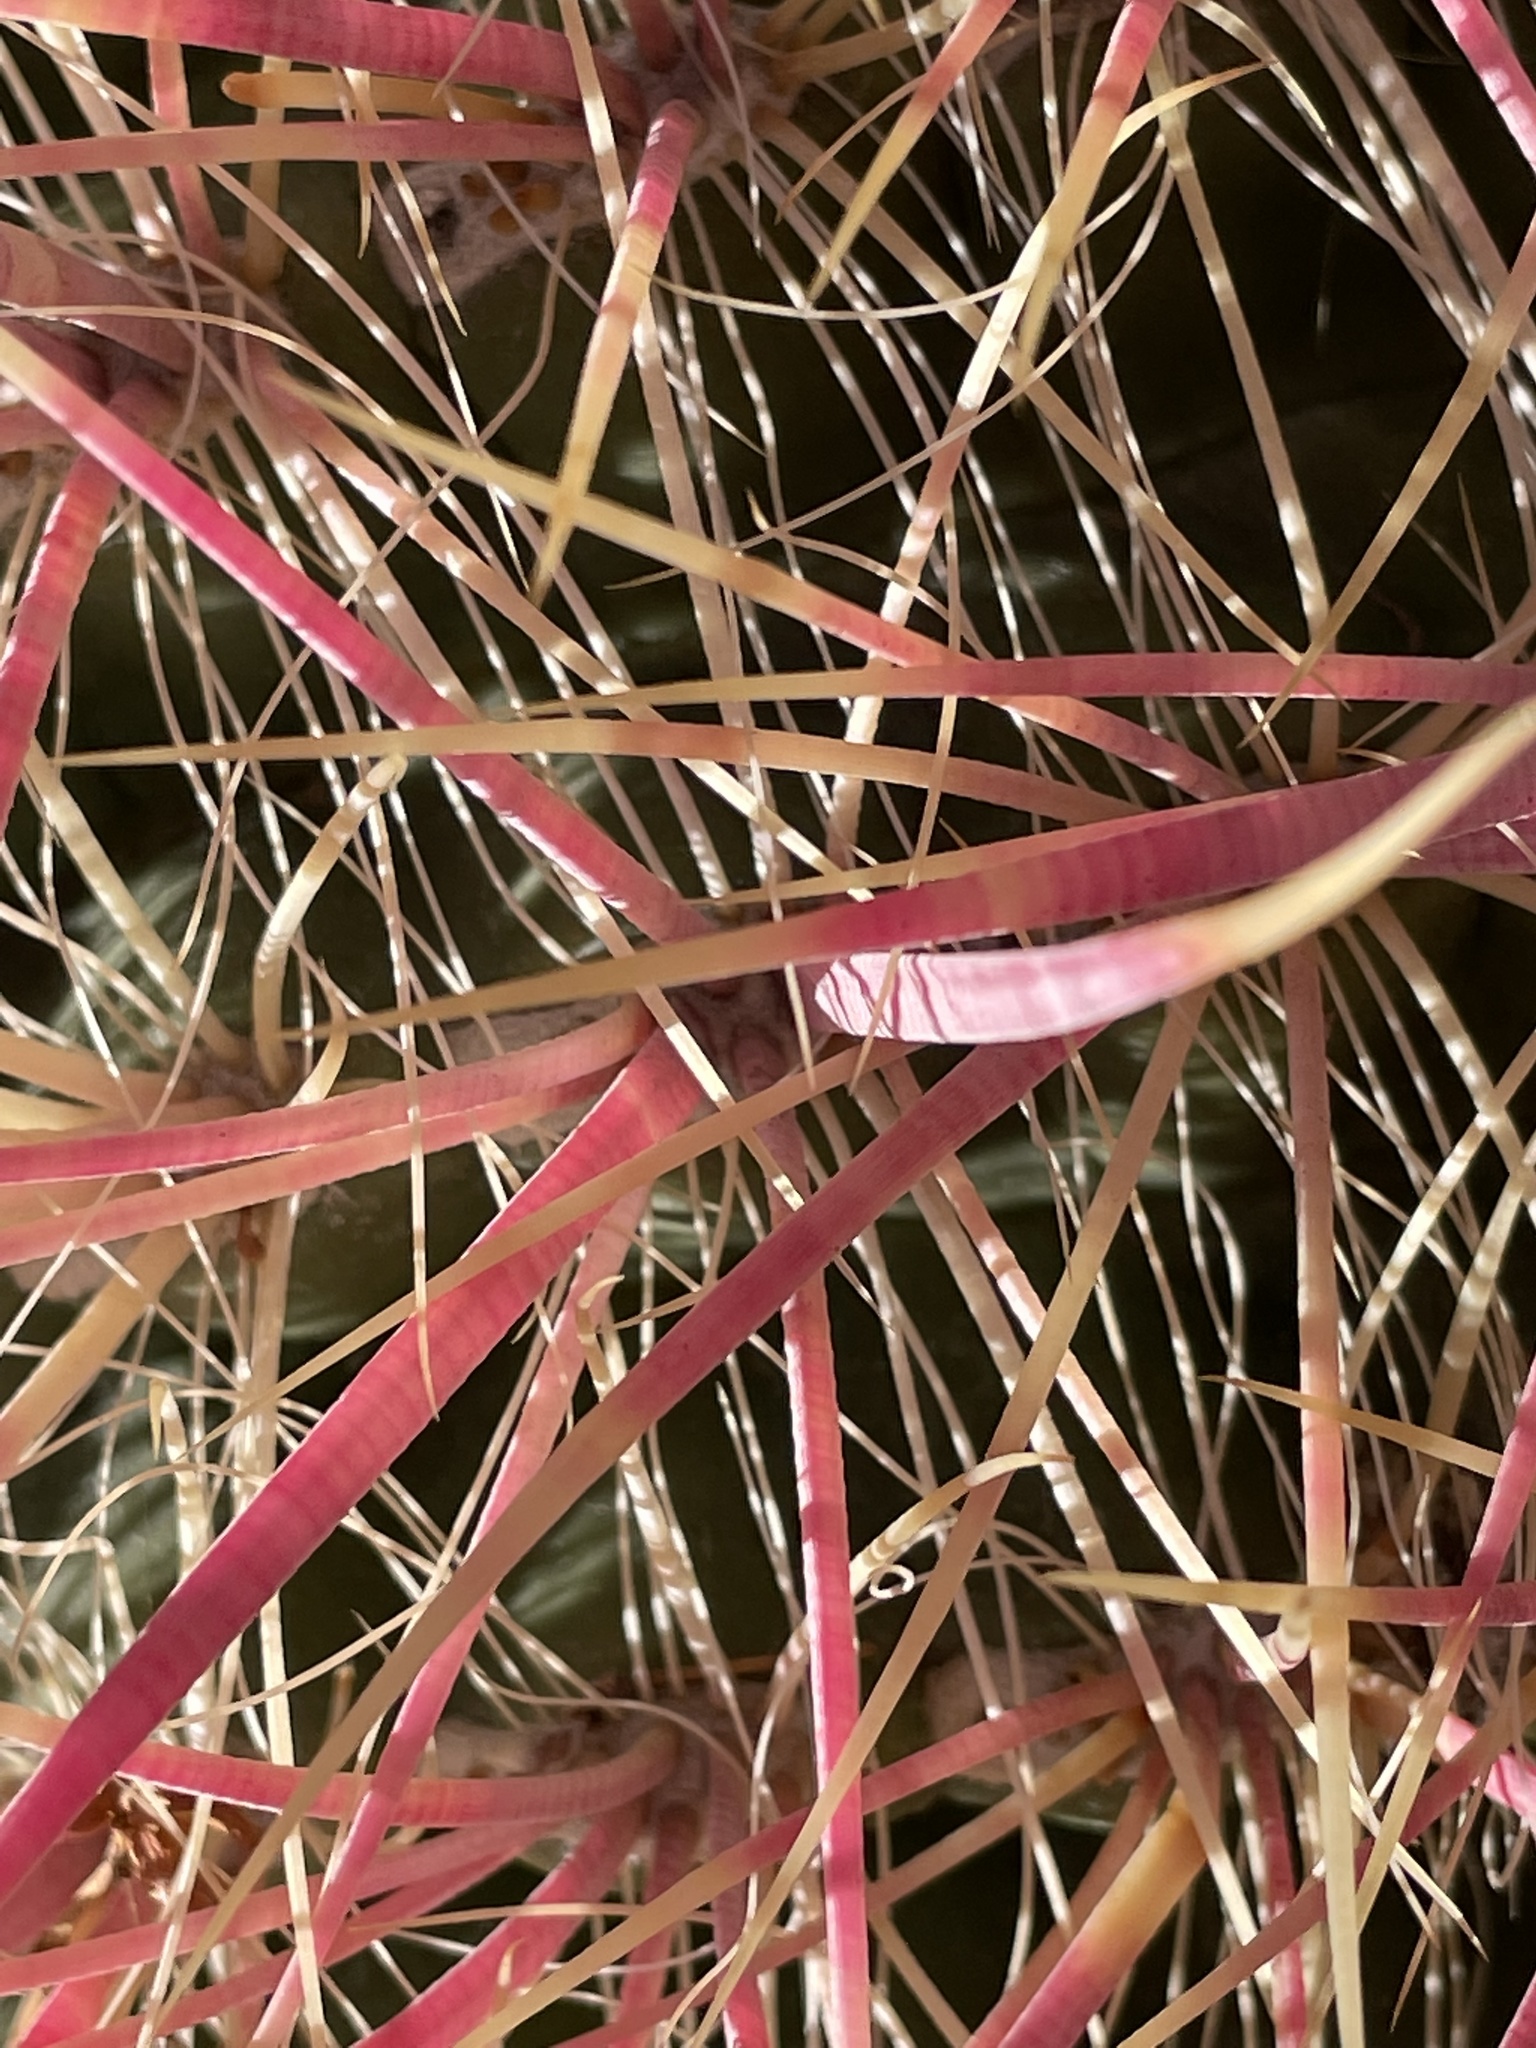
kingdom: Plantae
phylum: Tracheophyta
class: Magnoliopsida
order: Caryophyllales
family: Cactaceae
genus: Ferocactus
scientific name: Ferocactus cylindraceus
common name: California barrel cactus
